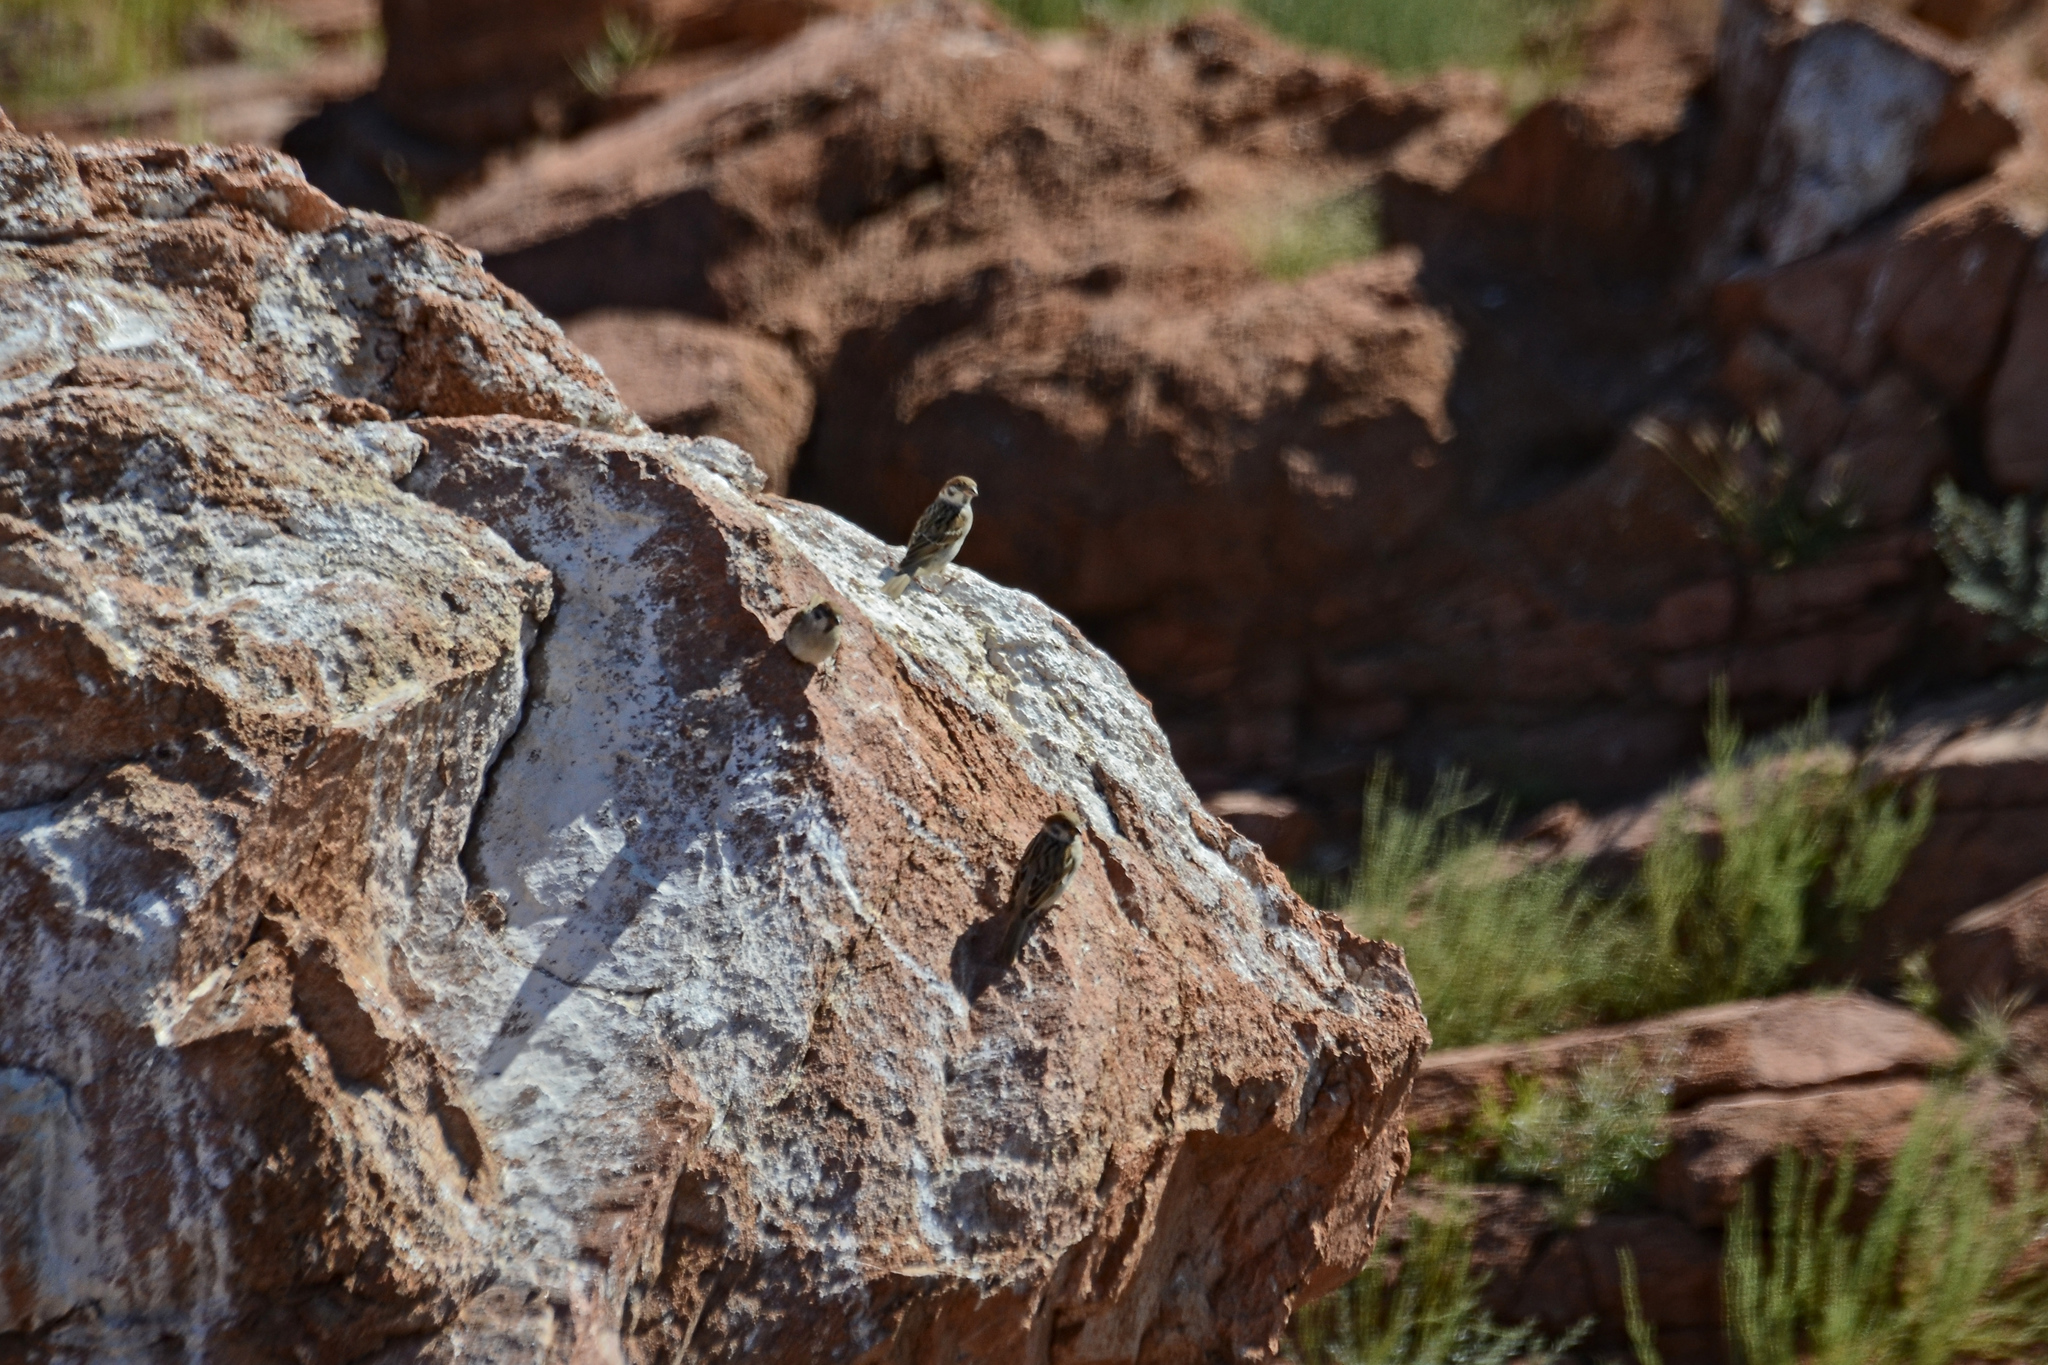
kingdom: Animalia
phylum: Chordata
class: Aves
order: Passeriformes
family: Passeridae
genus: Passer
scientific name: Passer montanus
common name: Eurasian tree sparrow
